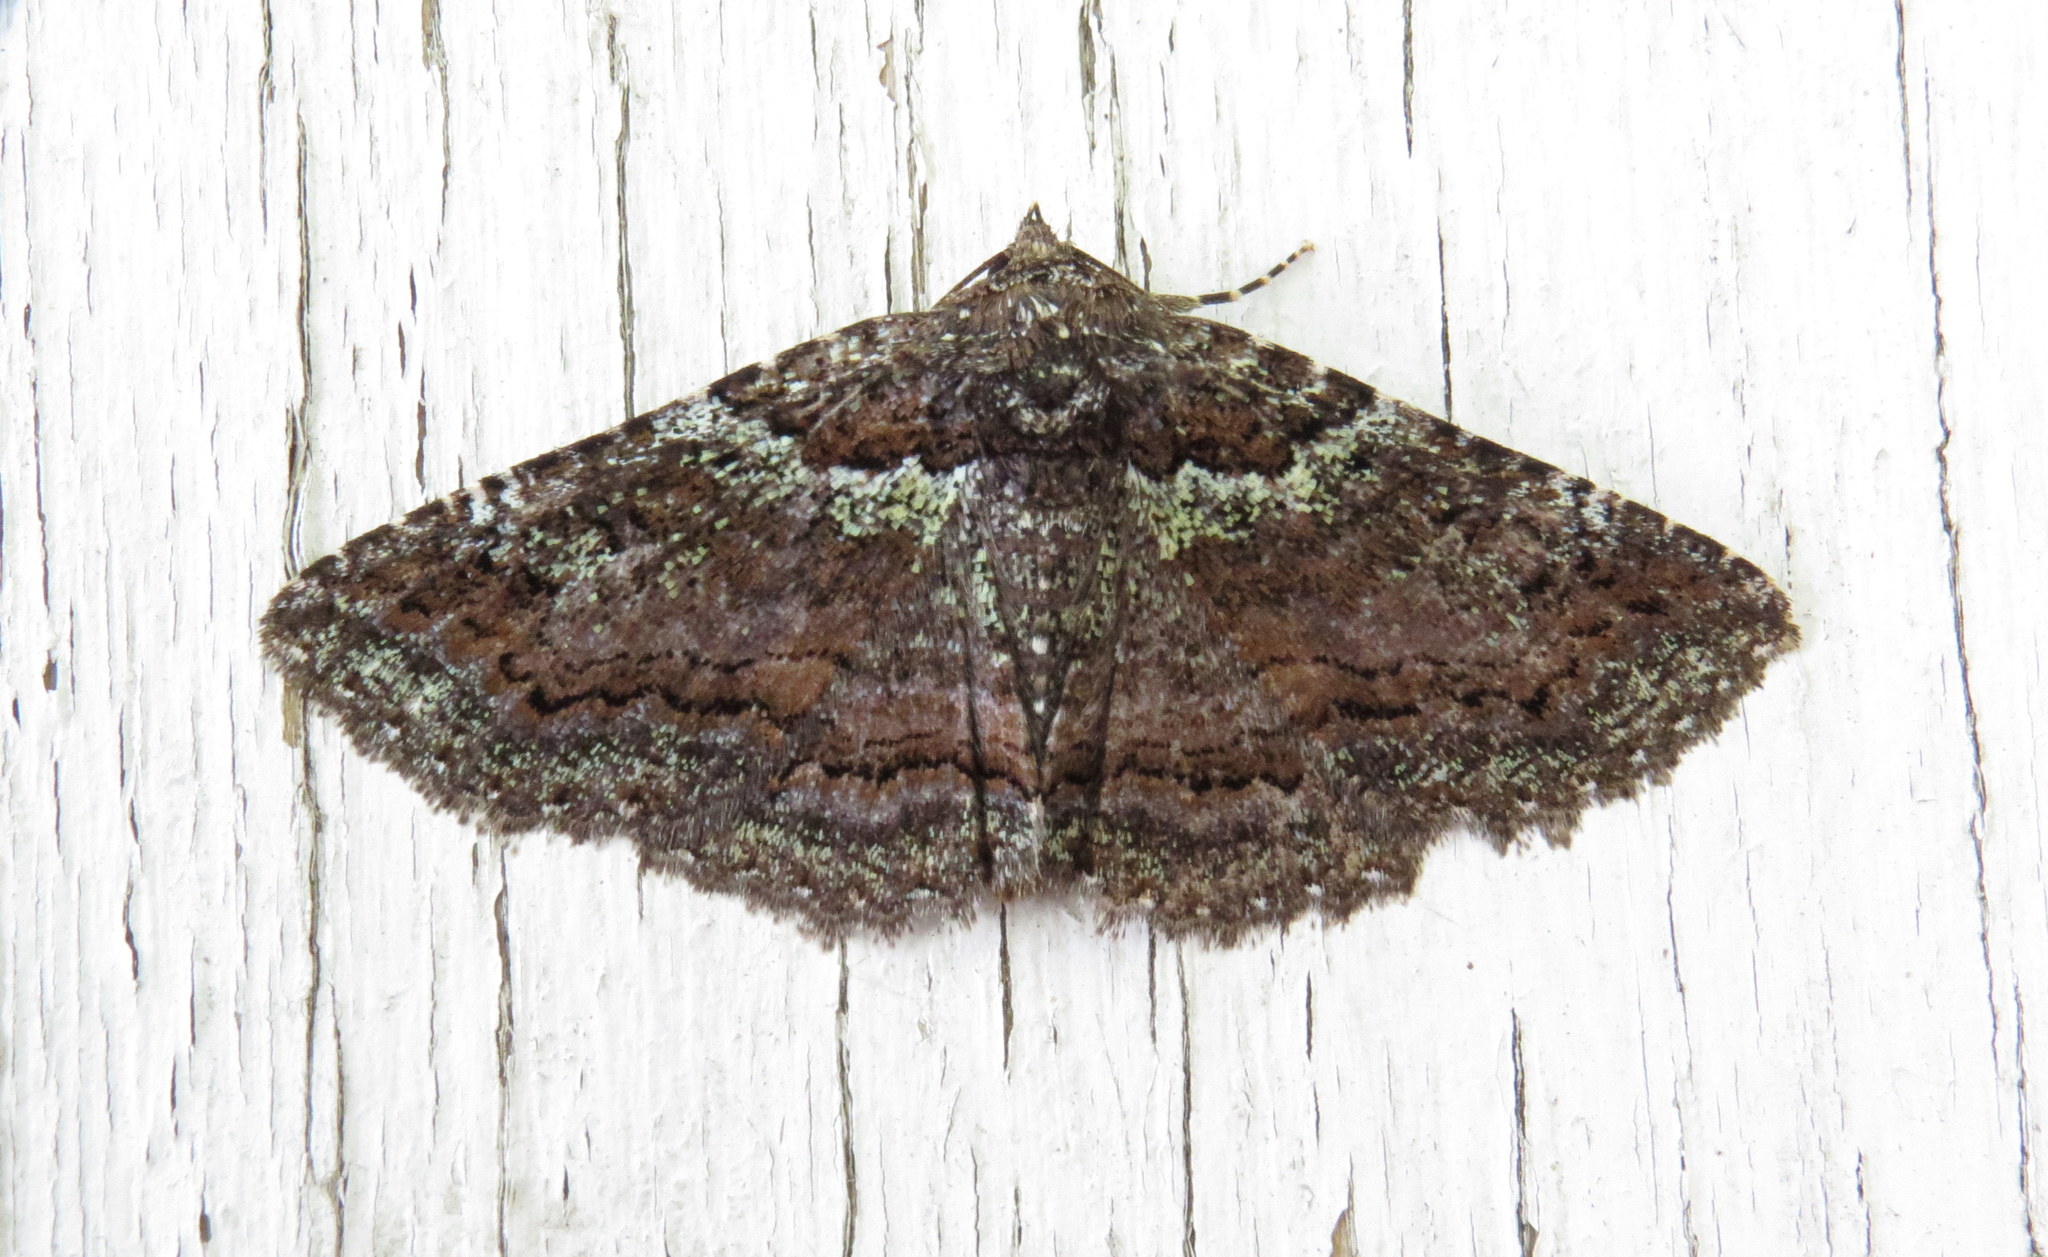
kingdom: Animalia
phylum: Arthropoda
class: Insecta
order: Lepidoptera
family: Erebidae
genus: Zale
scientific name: Zale aeruginosa
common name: Green-dusted zale moth
